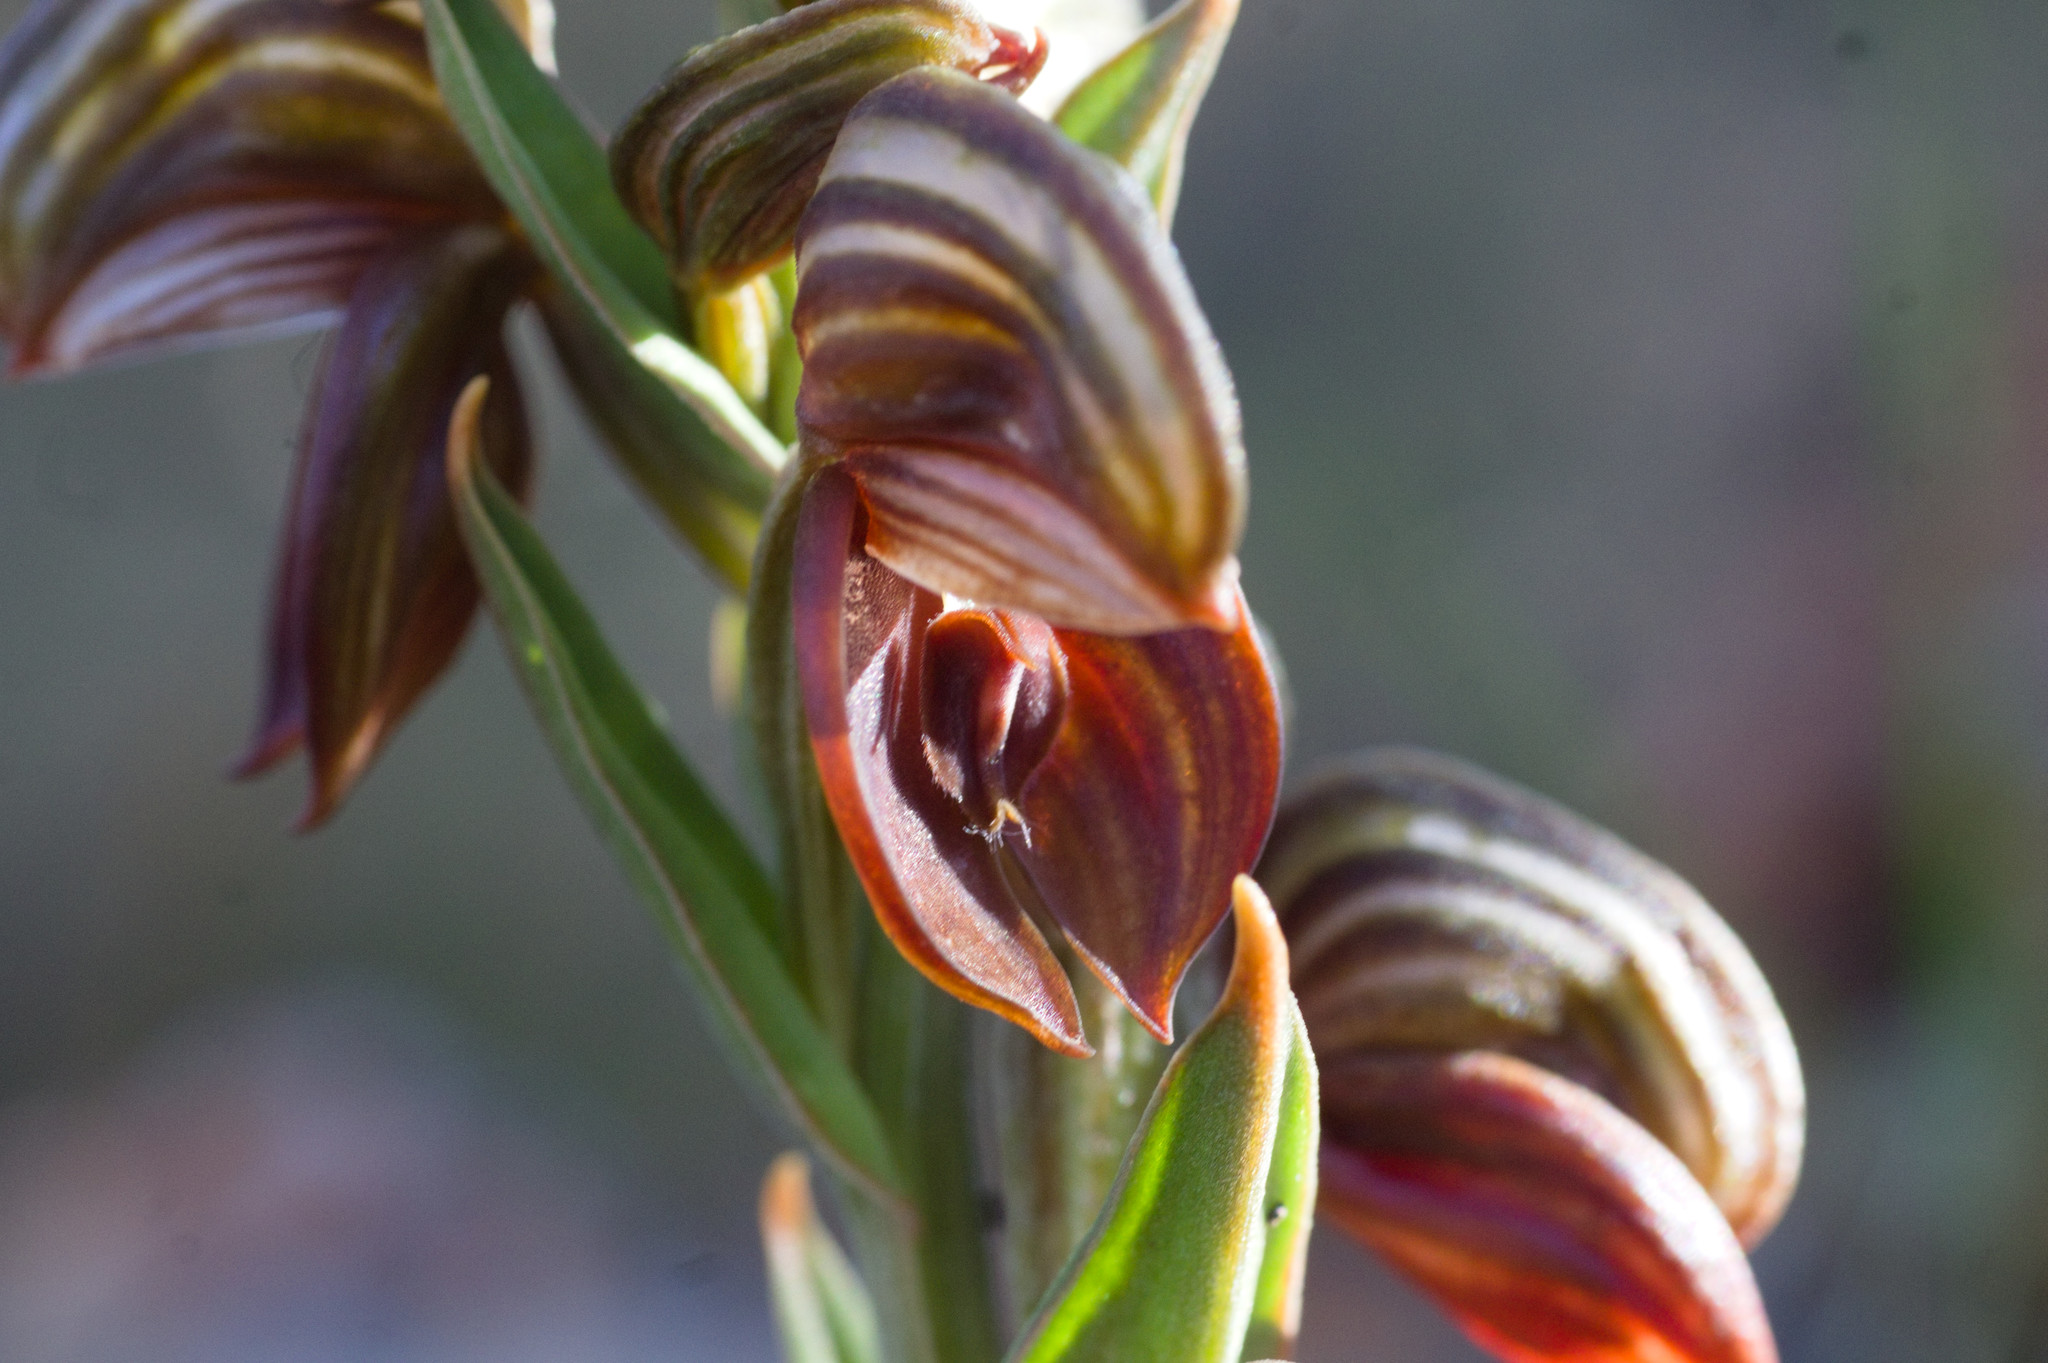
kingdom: Plantae
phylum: Tracheophyta
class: Liliopsida
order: Asparagales
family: Orchidaceae
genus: Pterostylis
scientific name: Pterostylis sanguinea
